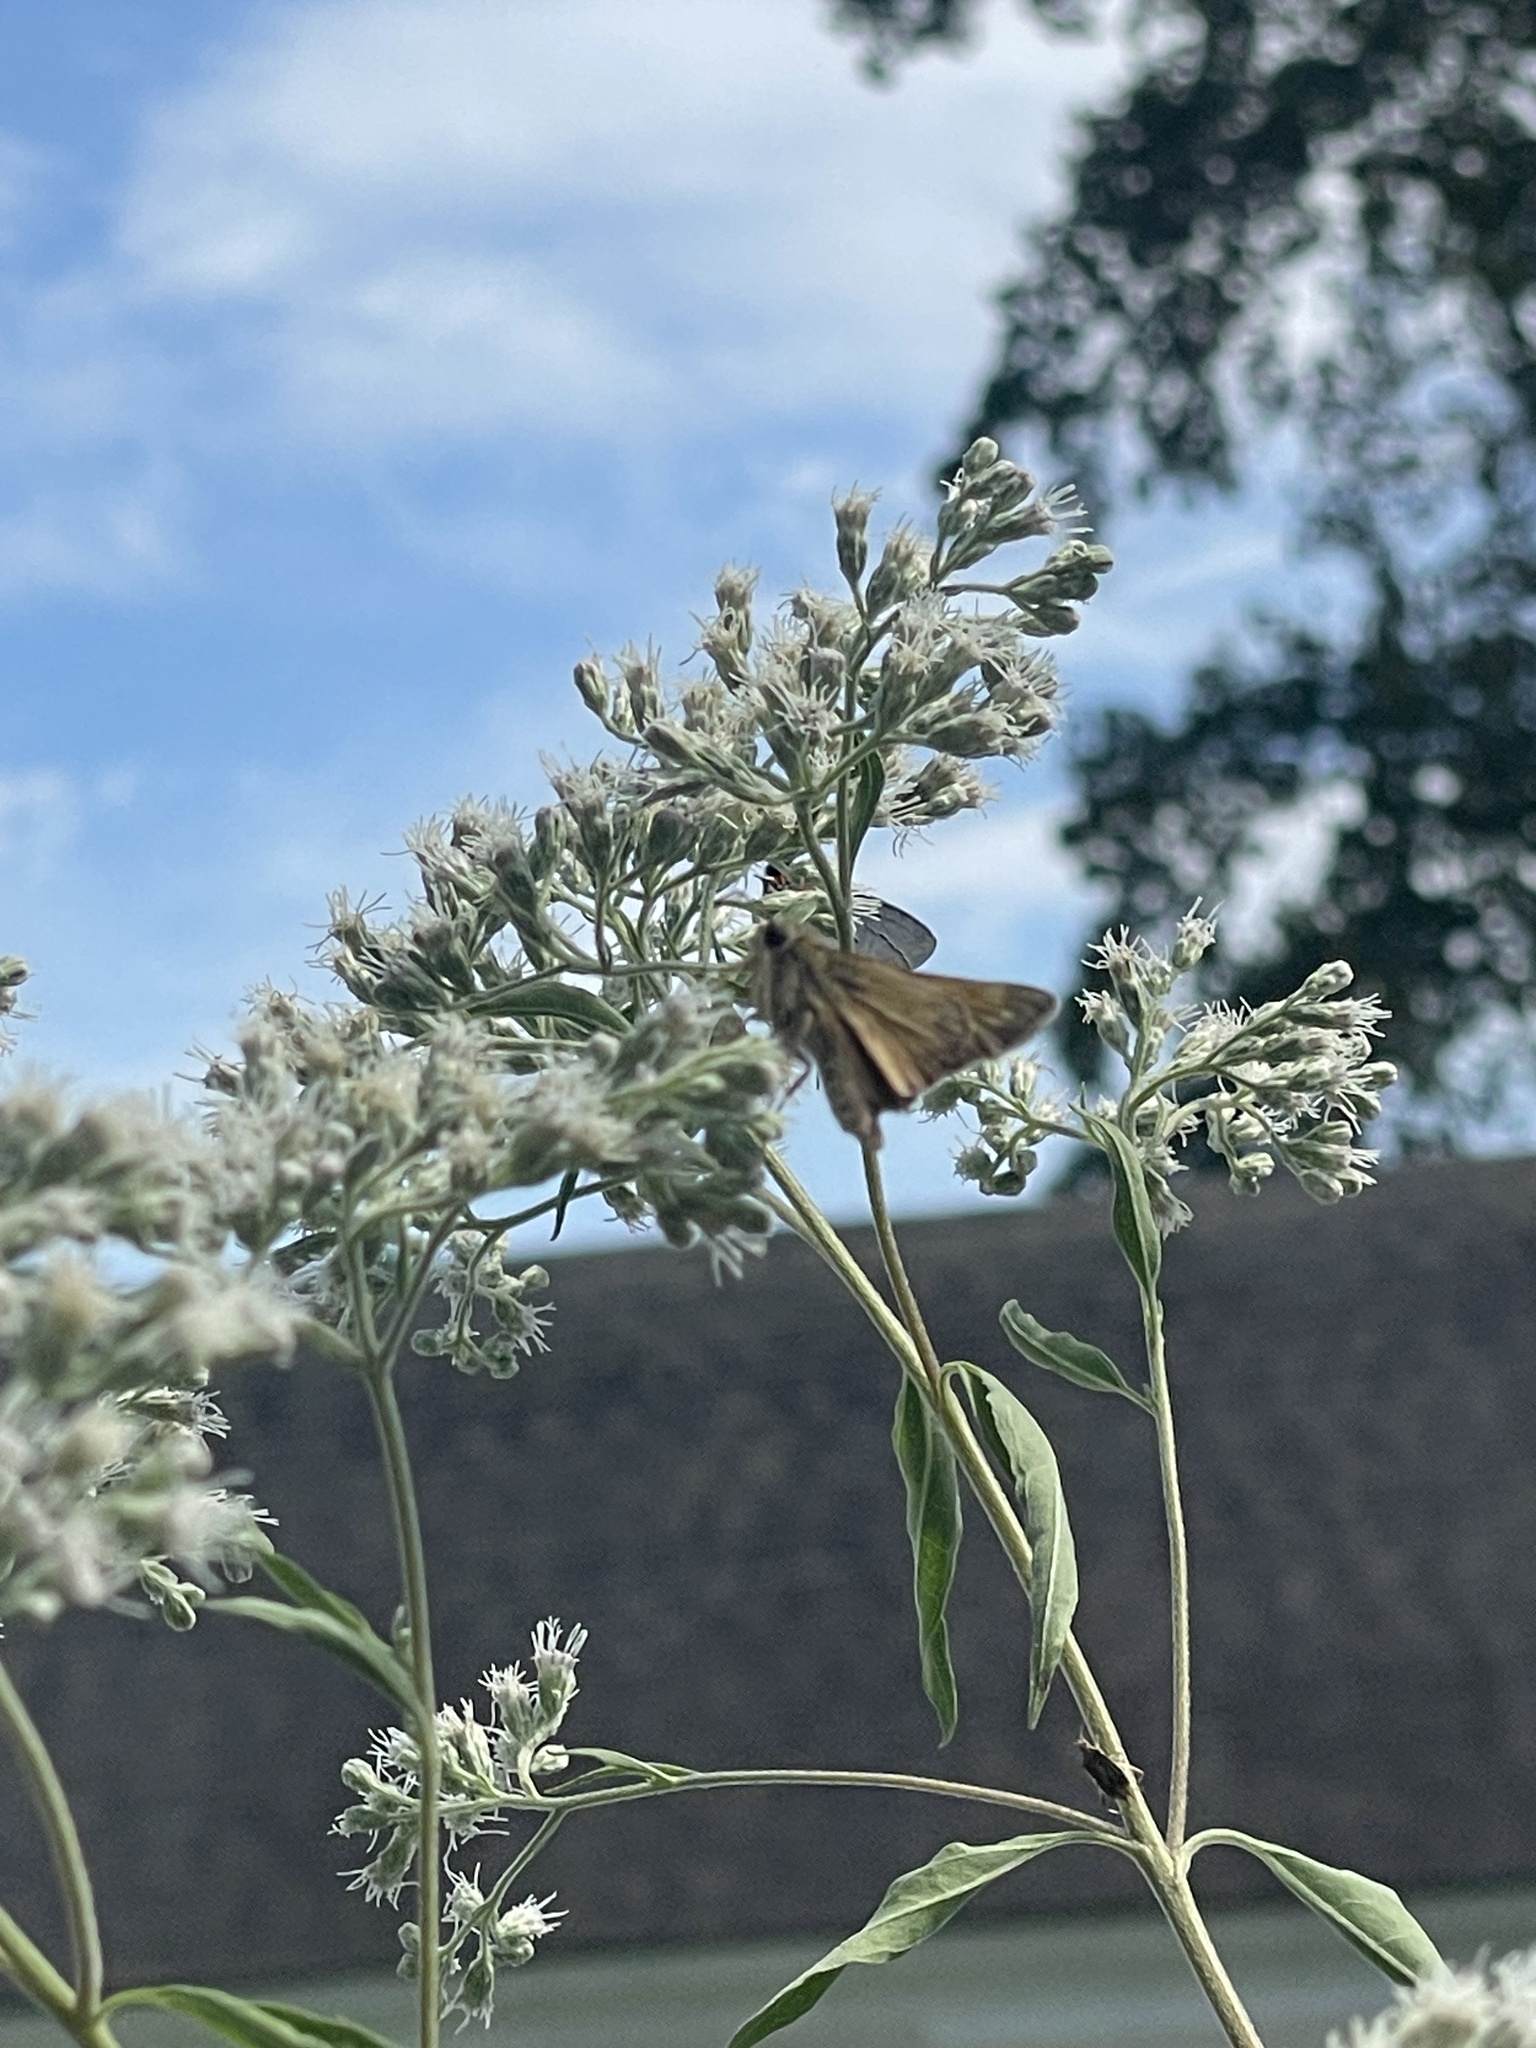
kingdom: Animalia
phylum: Arthropoda
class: Insecta
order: Lepidoptera
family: Hesperiidae
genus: Atalopedes
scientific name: Atalopedes
